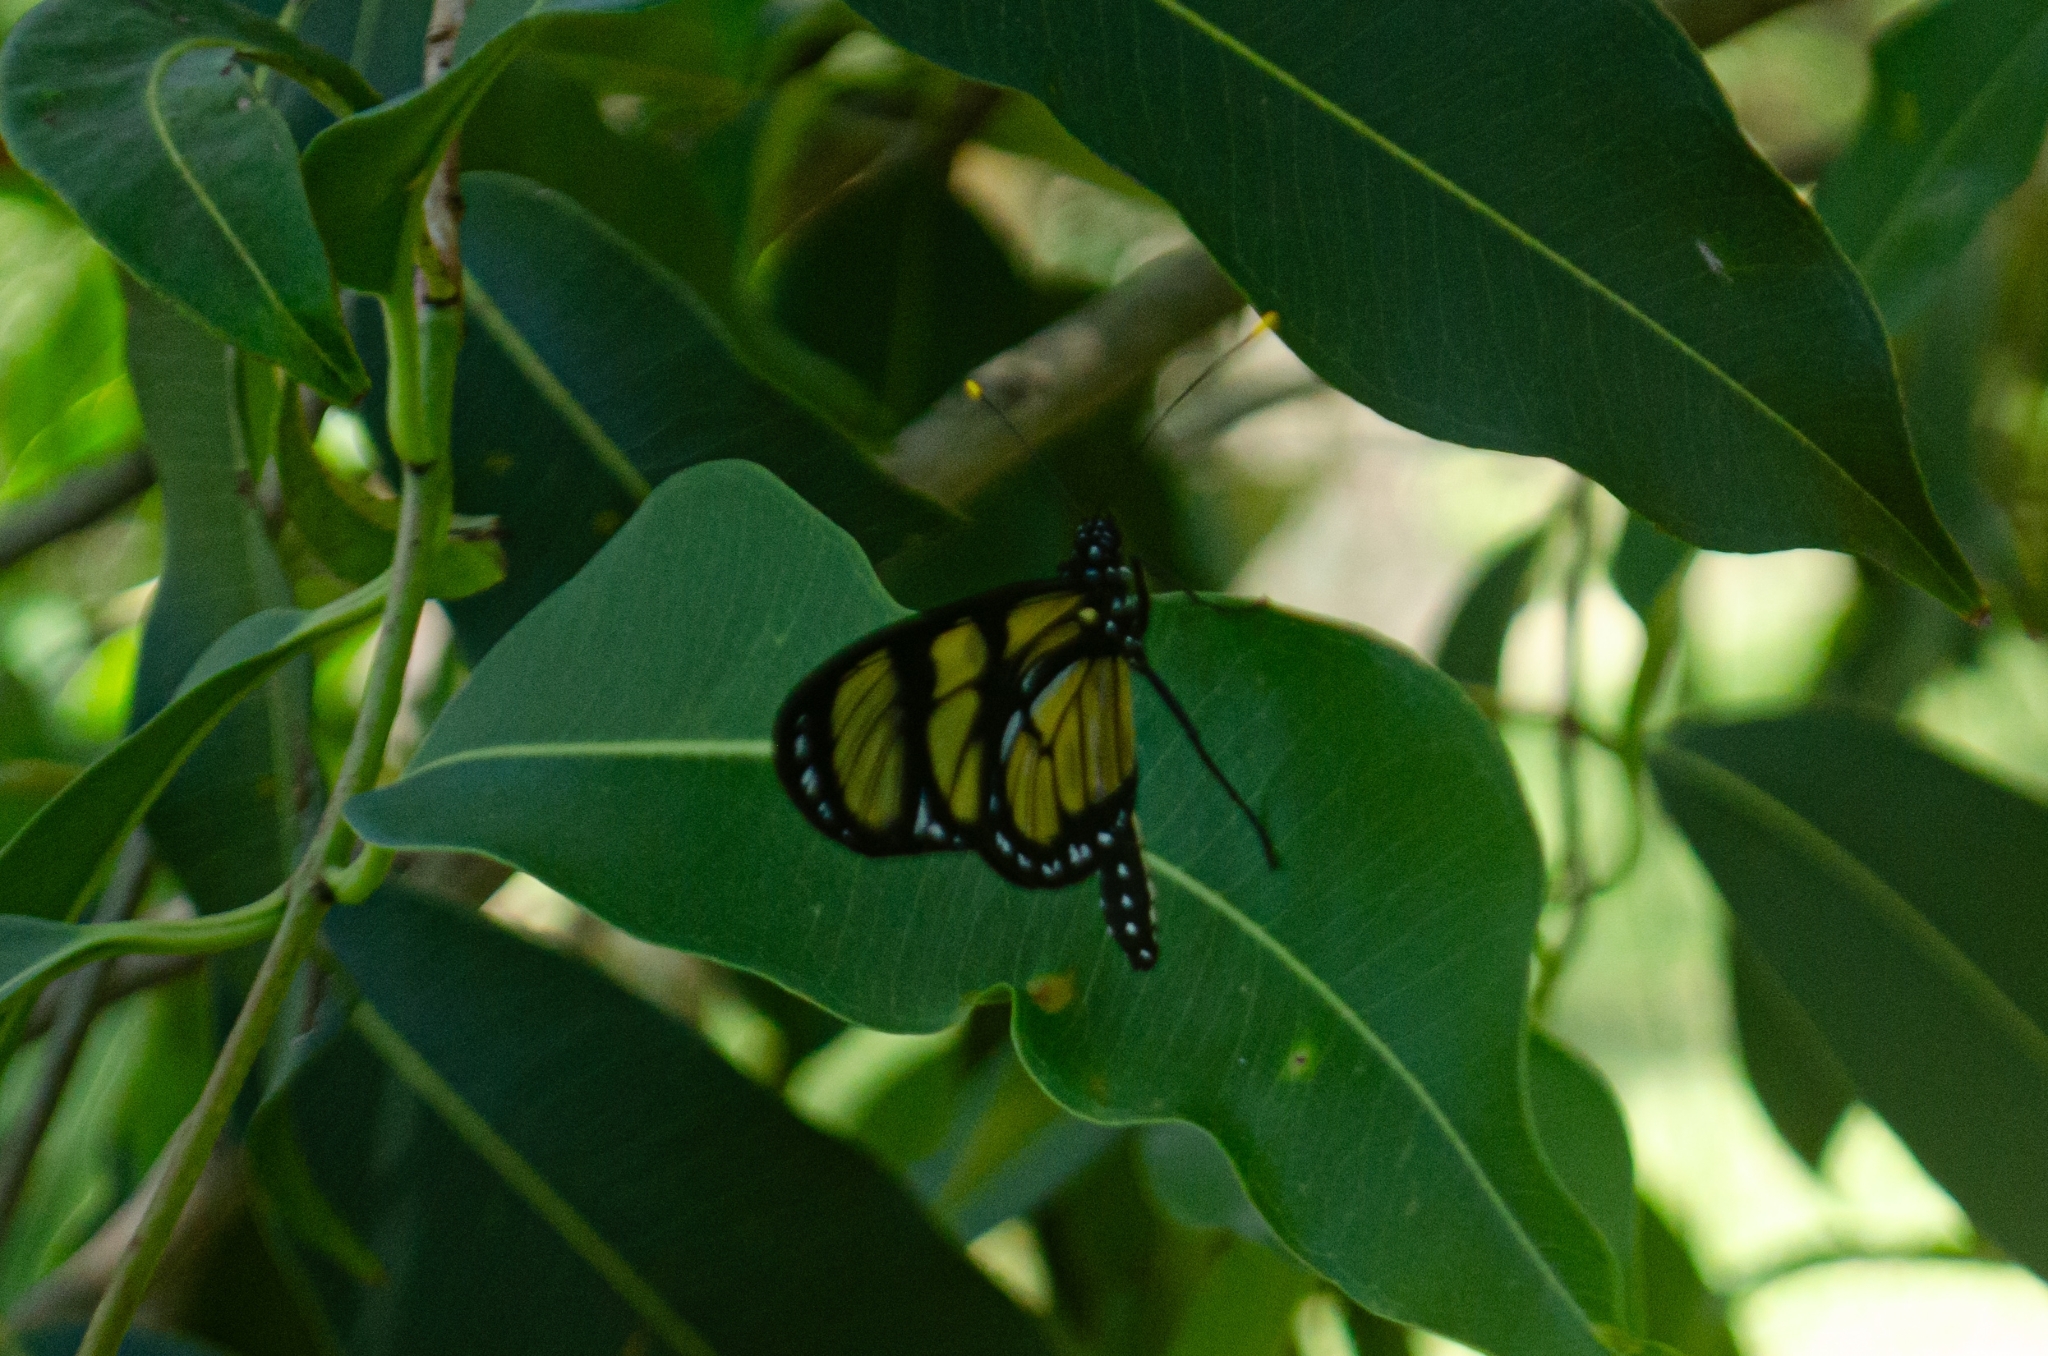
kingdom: Animalia
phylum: Arthropoda
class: Insecta
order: Lepidoptera
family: Nymphalidae
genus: Methona
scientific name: Methona themisto
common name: Themisto amberwing
